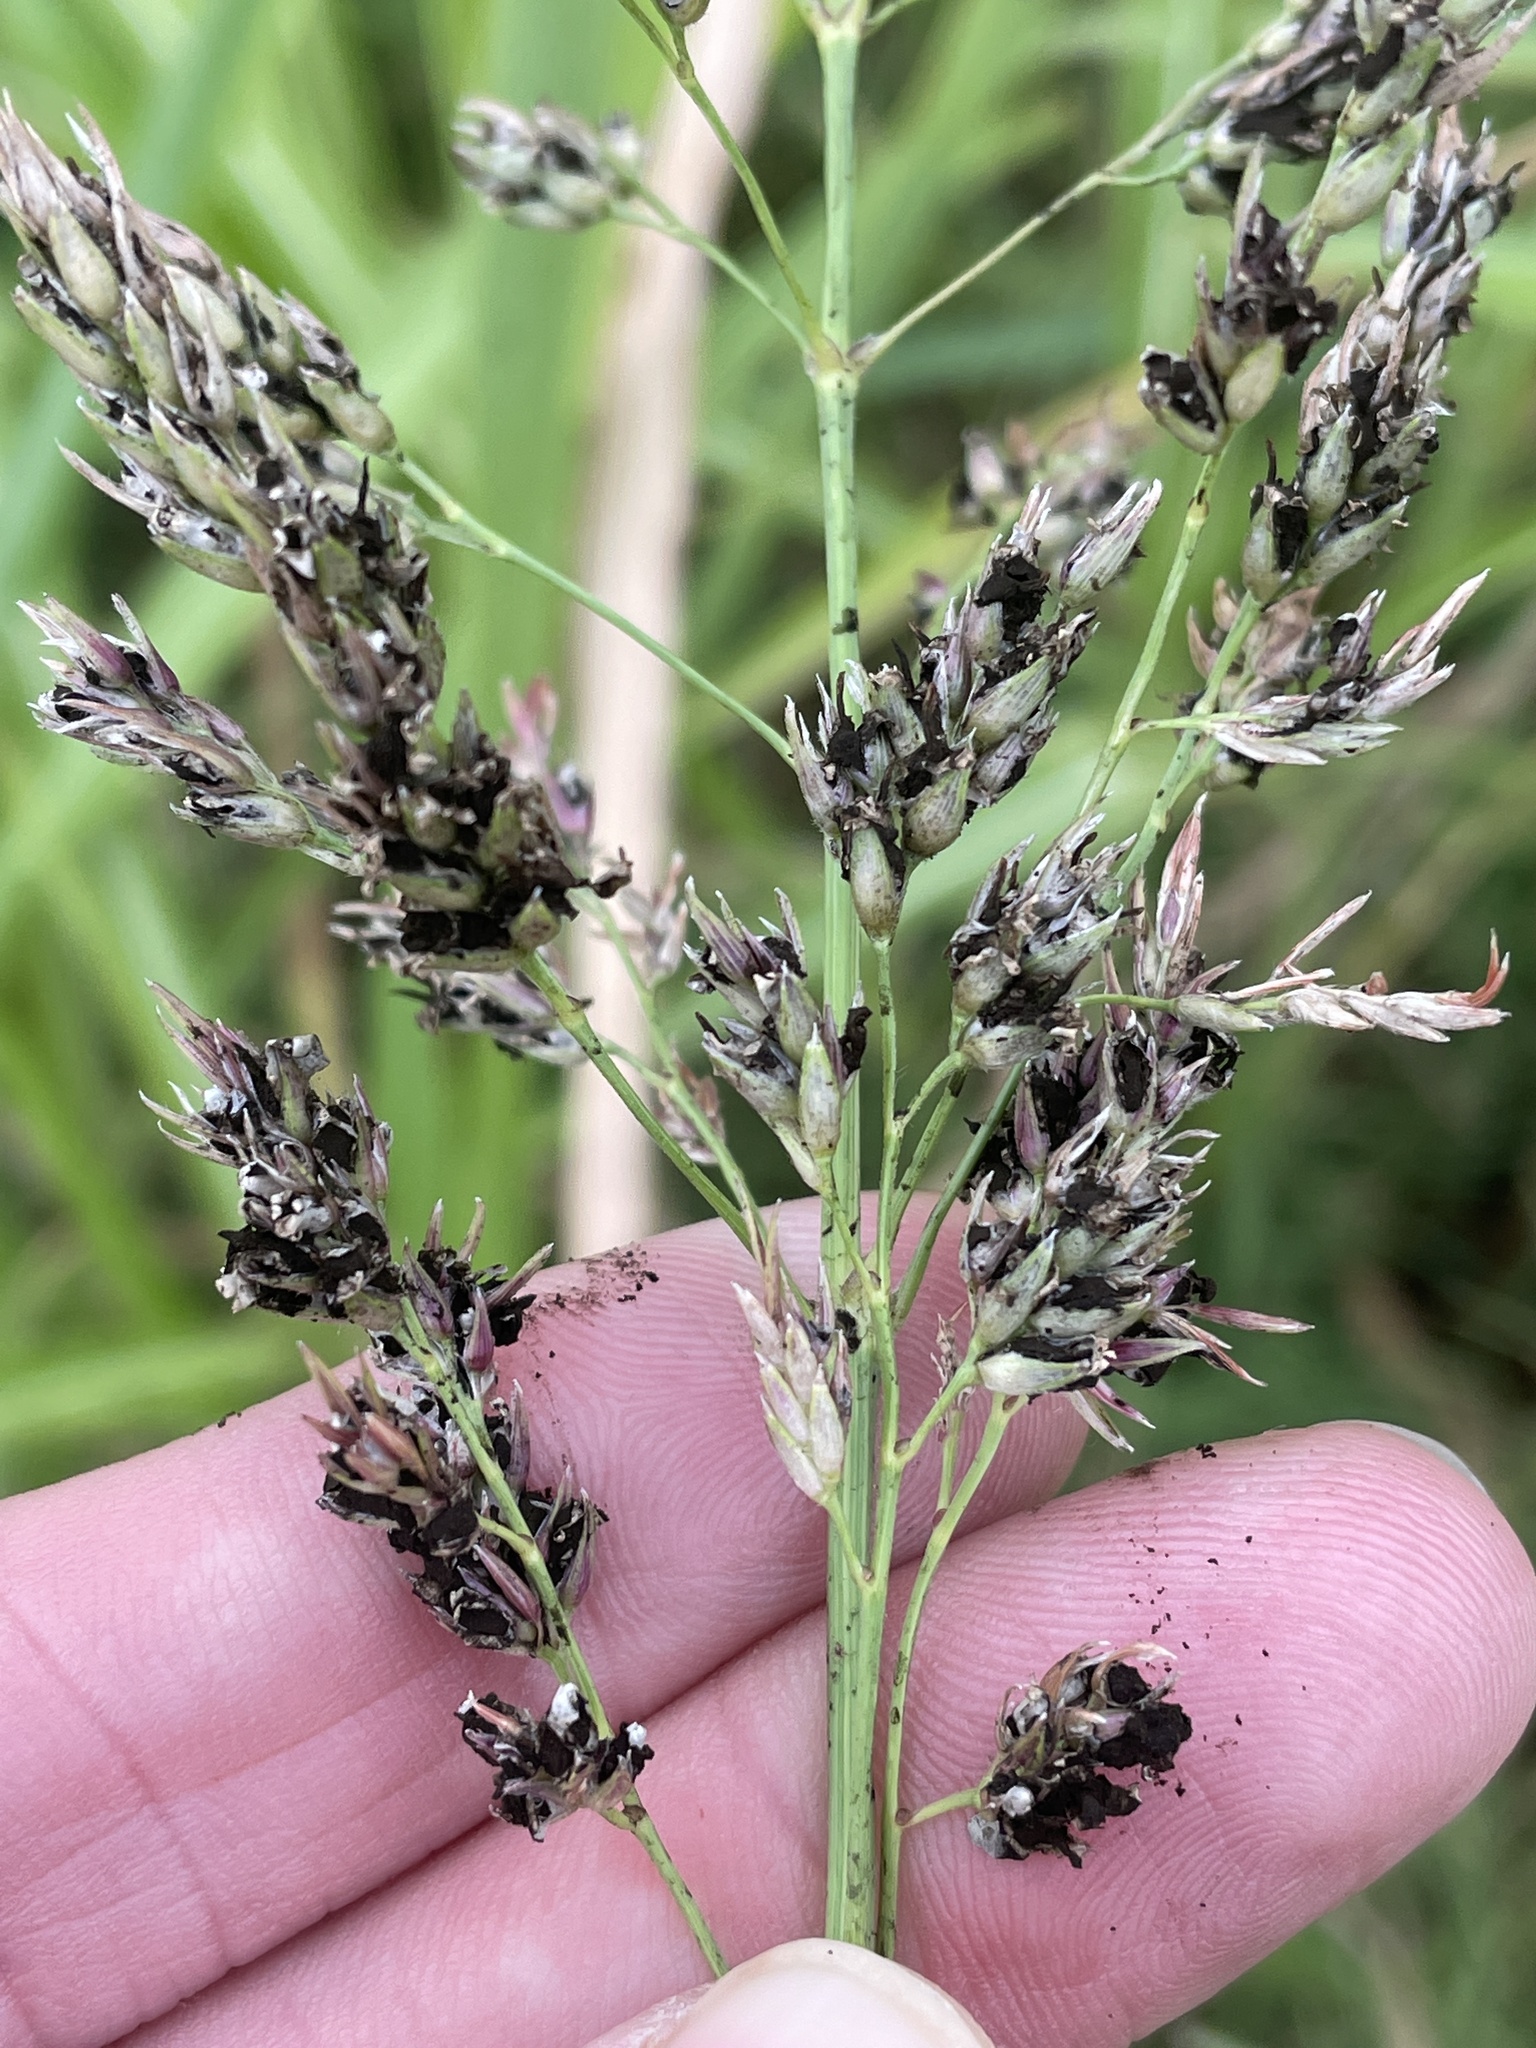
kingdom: Fungi
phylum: Basidiomycota
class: Ustilaginomycetes
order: Ustilaginales
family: Ustilaginaceae
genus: Sporisorium
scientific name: Sporisorium cruentum
